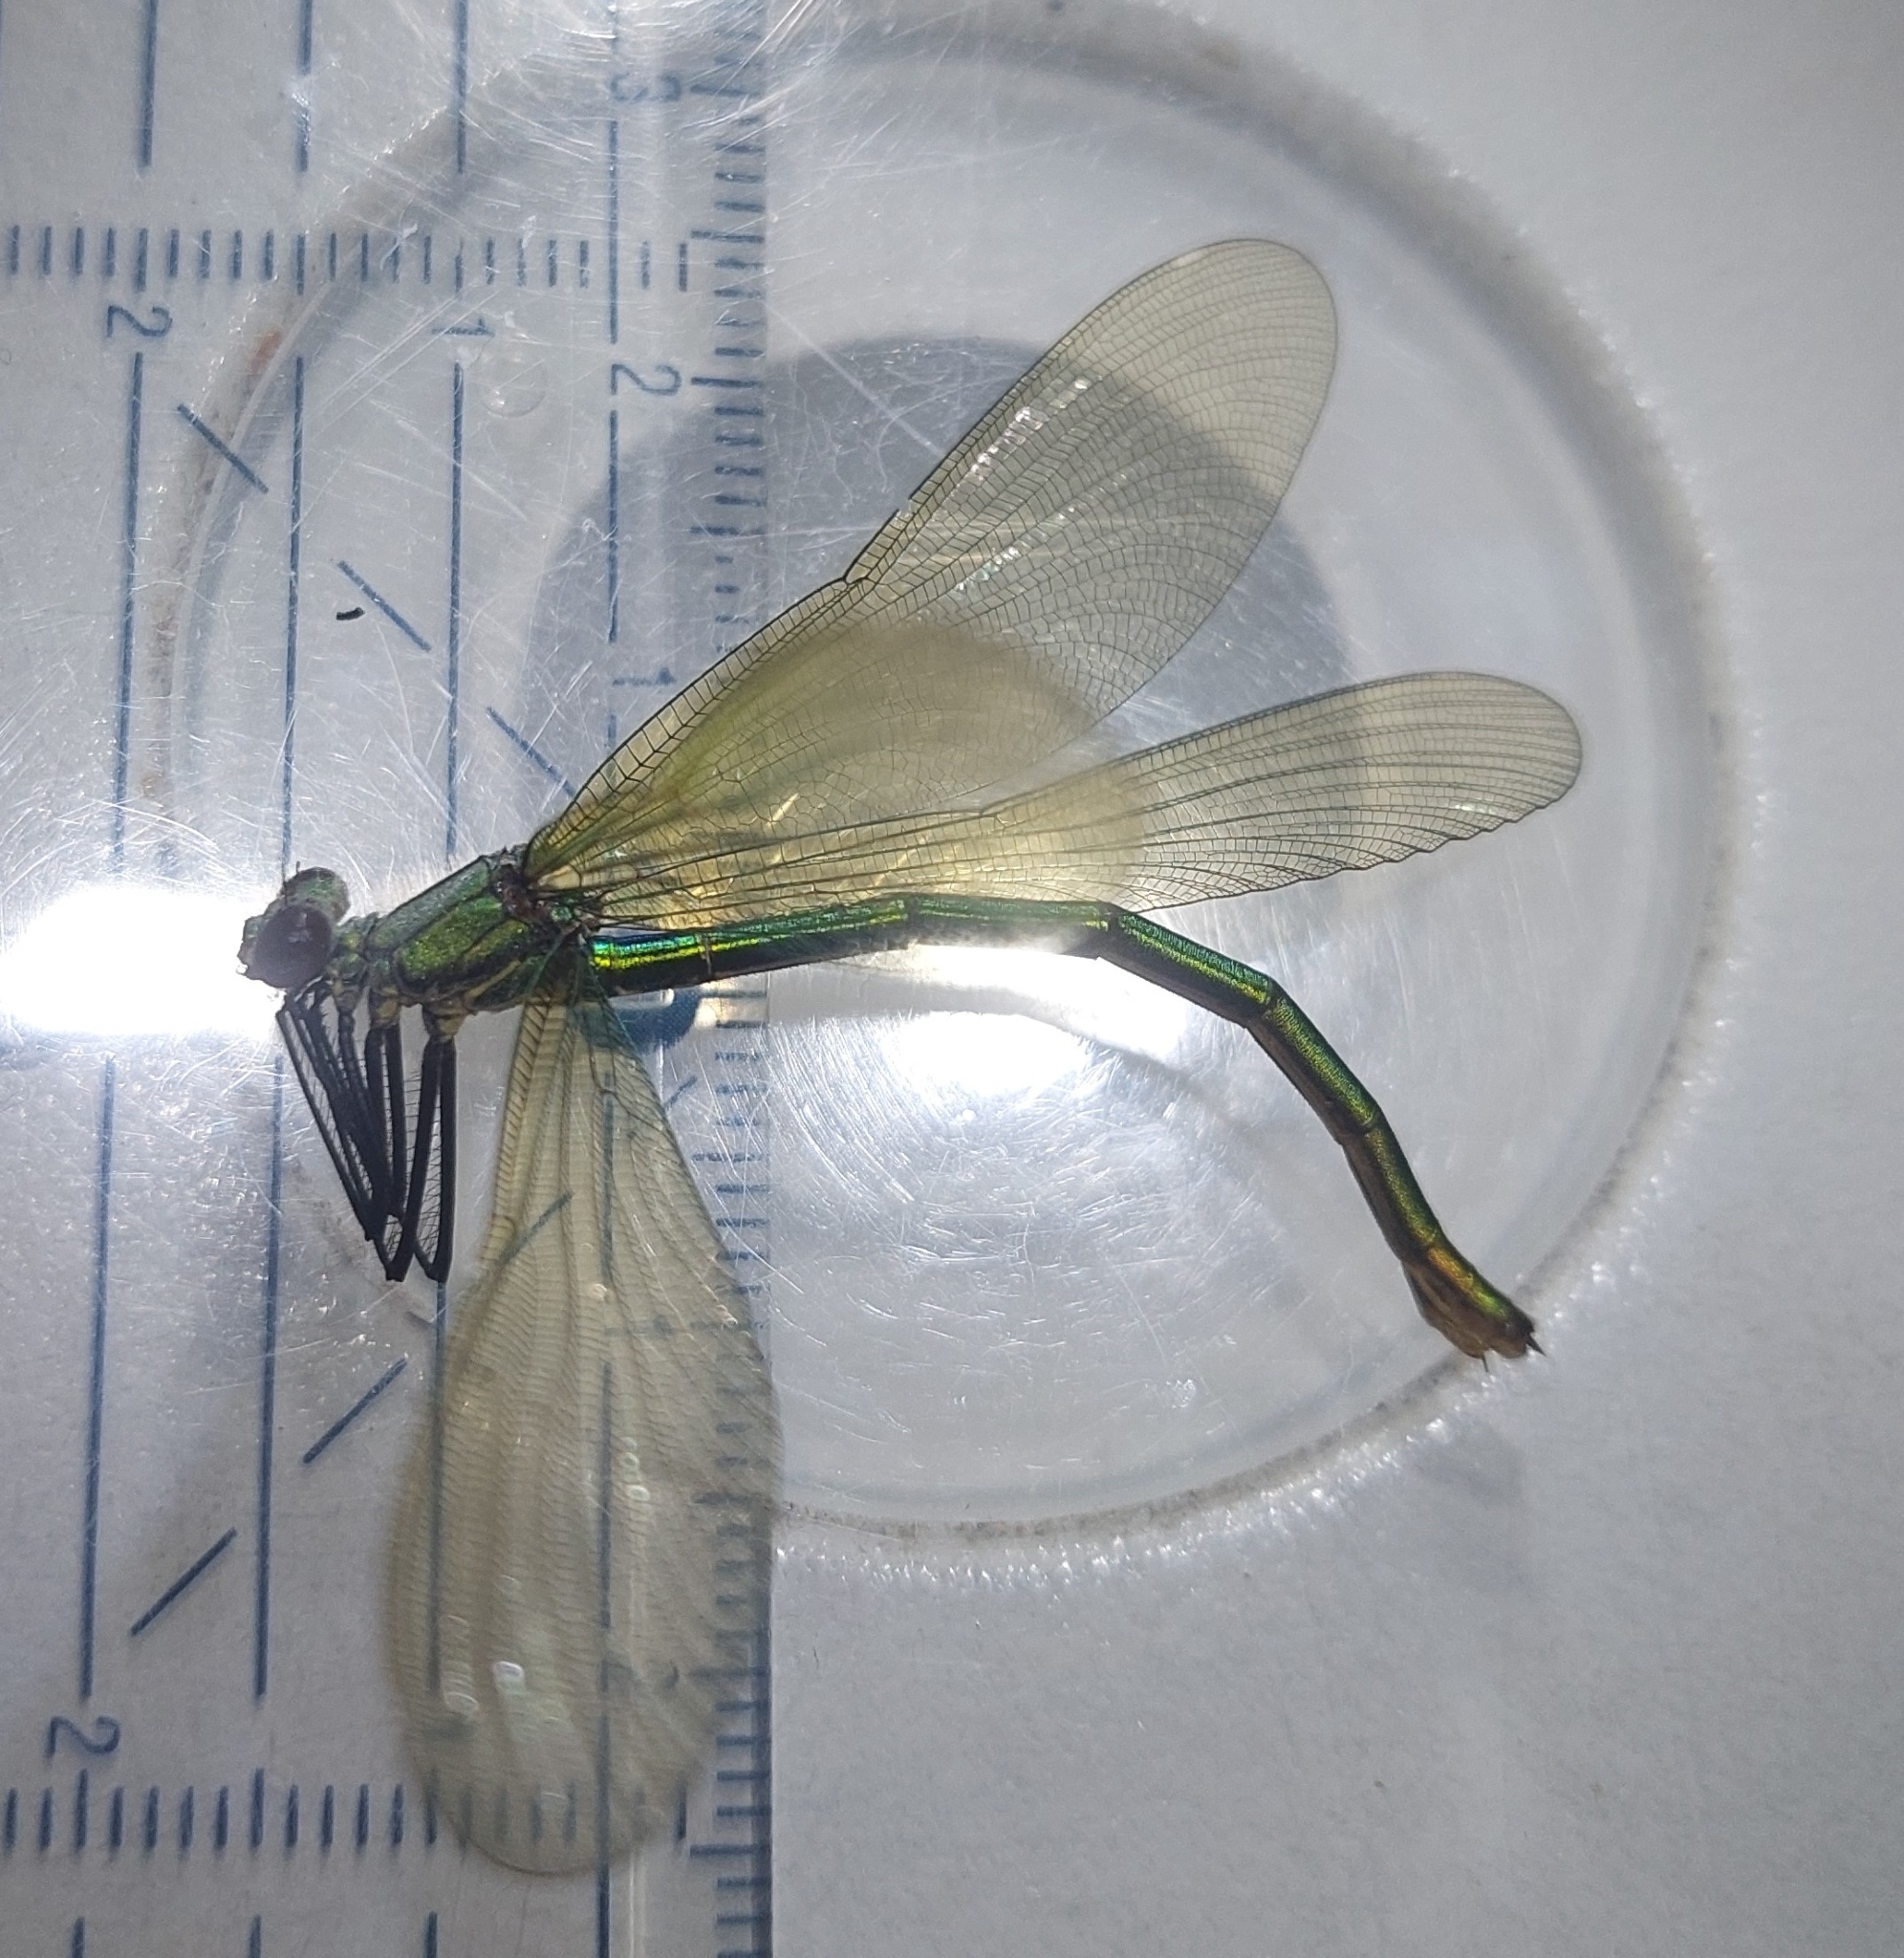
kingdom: Animalia
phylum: Arthropoda
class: Insecta
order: Odonata
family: Calopterygidae
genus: Calopteryx
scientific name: Calopteryx splendens
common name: Banded demoiselle
